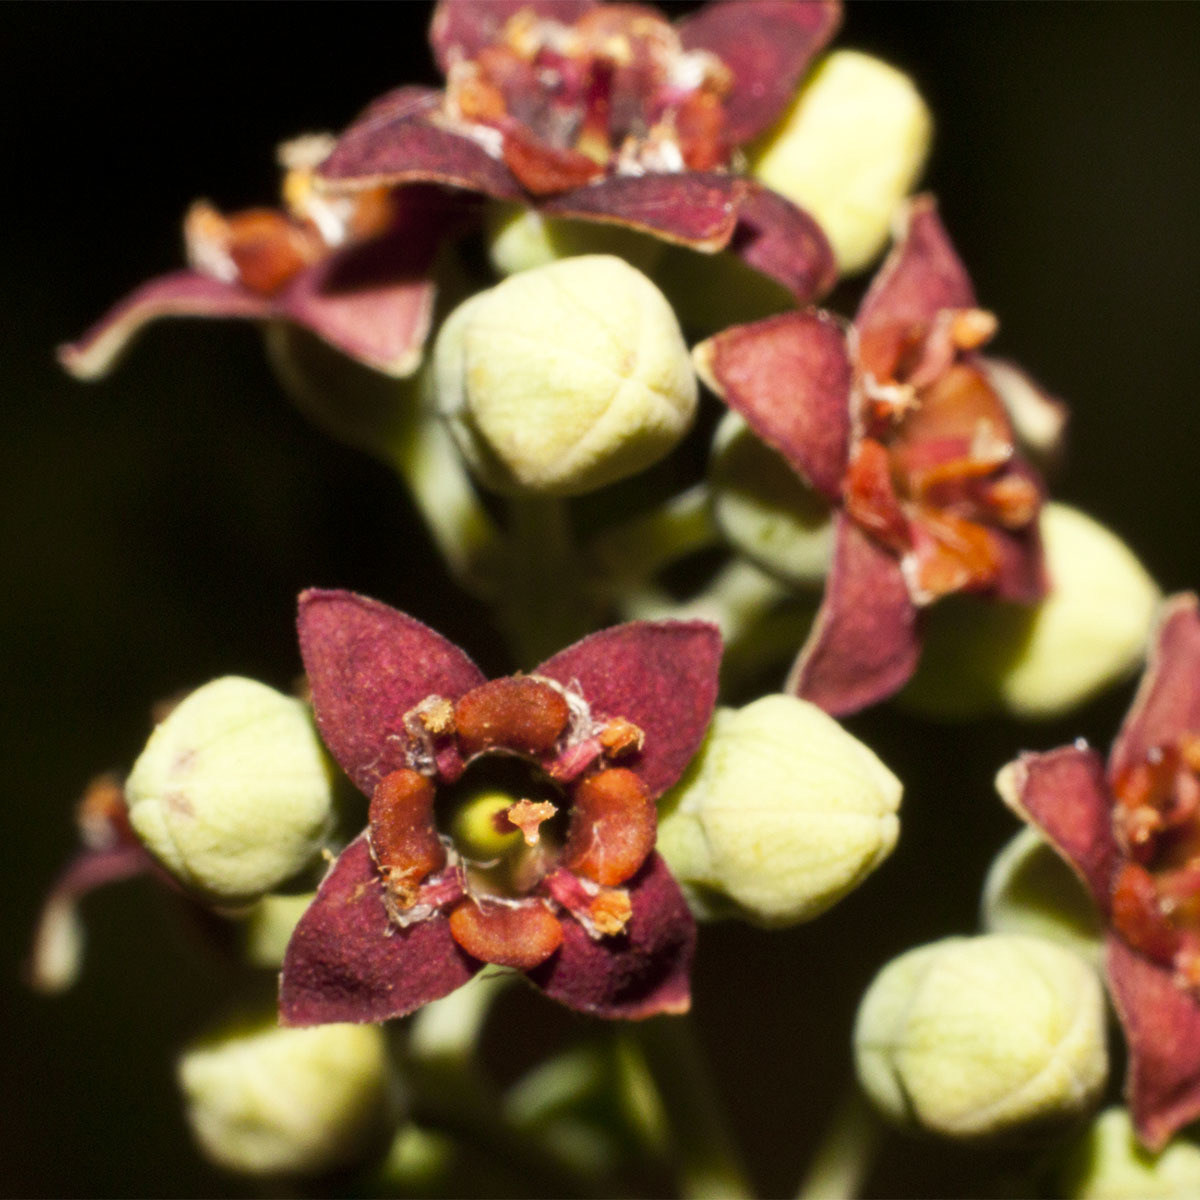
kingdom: Plantae
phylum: Tracheophyta
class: Magnoliopsida
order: Santalales
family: Santalaceae
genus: Santalum
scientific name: Santalum album
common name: Indian sandalwood
